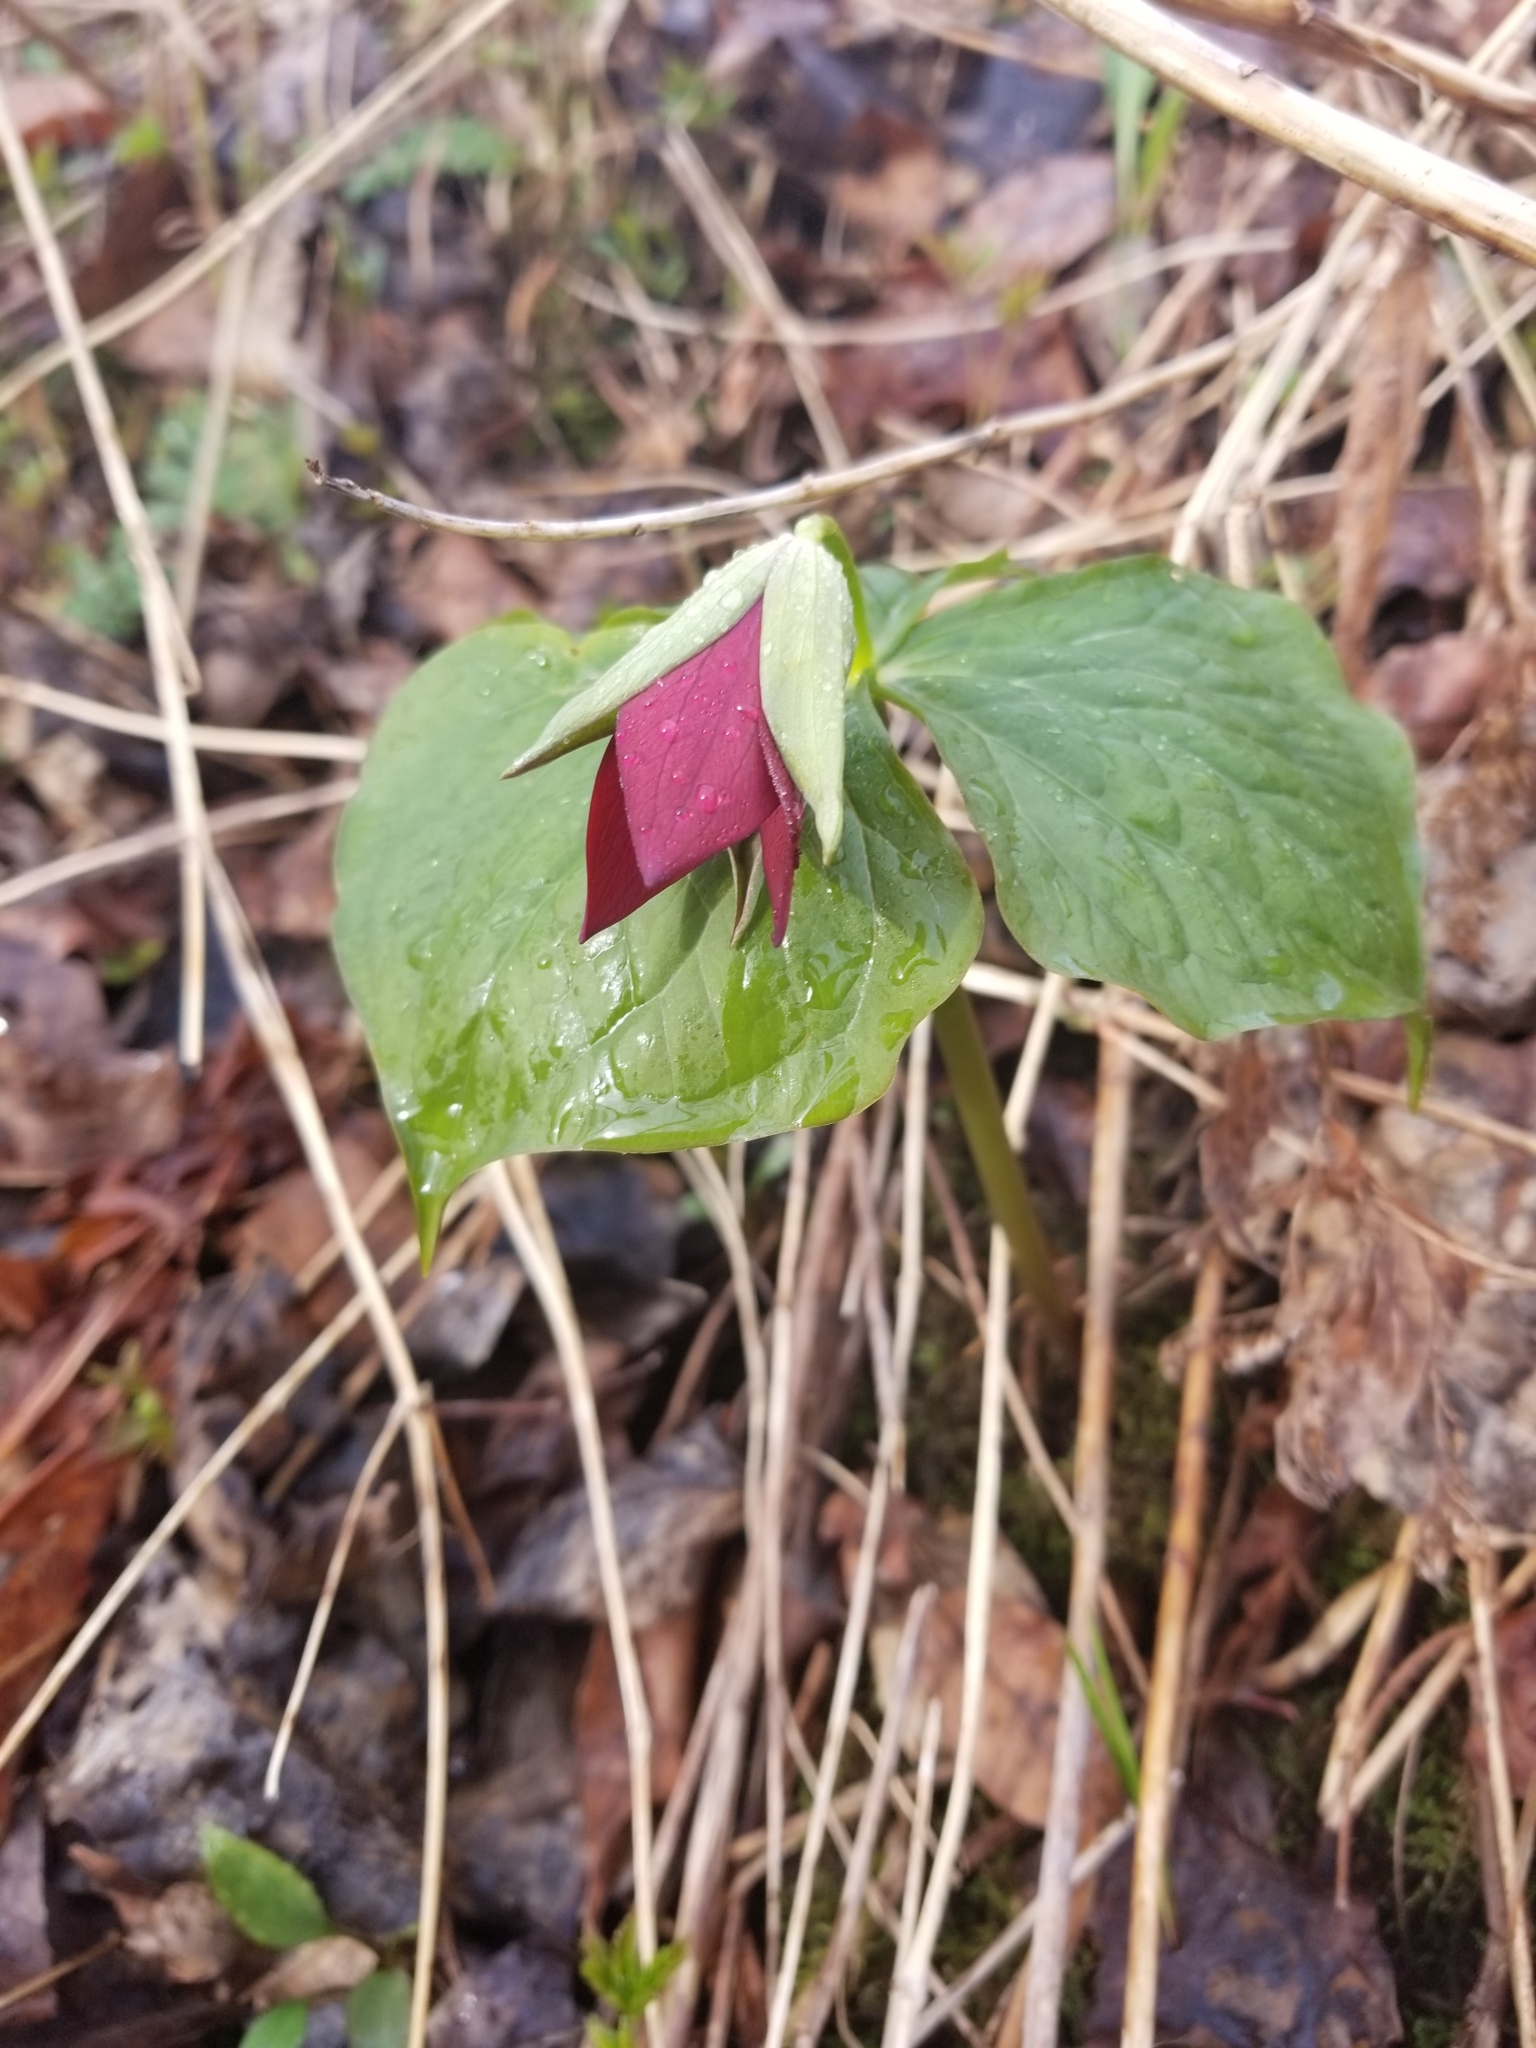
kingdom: Plantae
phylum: Tracheophyta
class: Liliopsida
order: Liliales
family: Melanthiaceae
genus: Trillium
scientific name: Trillium erectum
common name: Purple trillium
